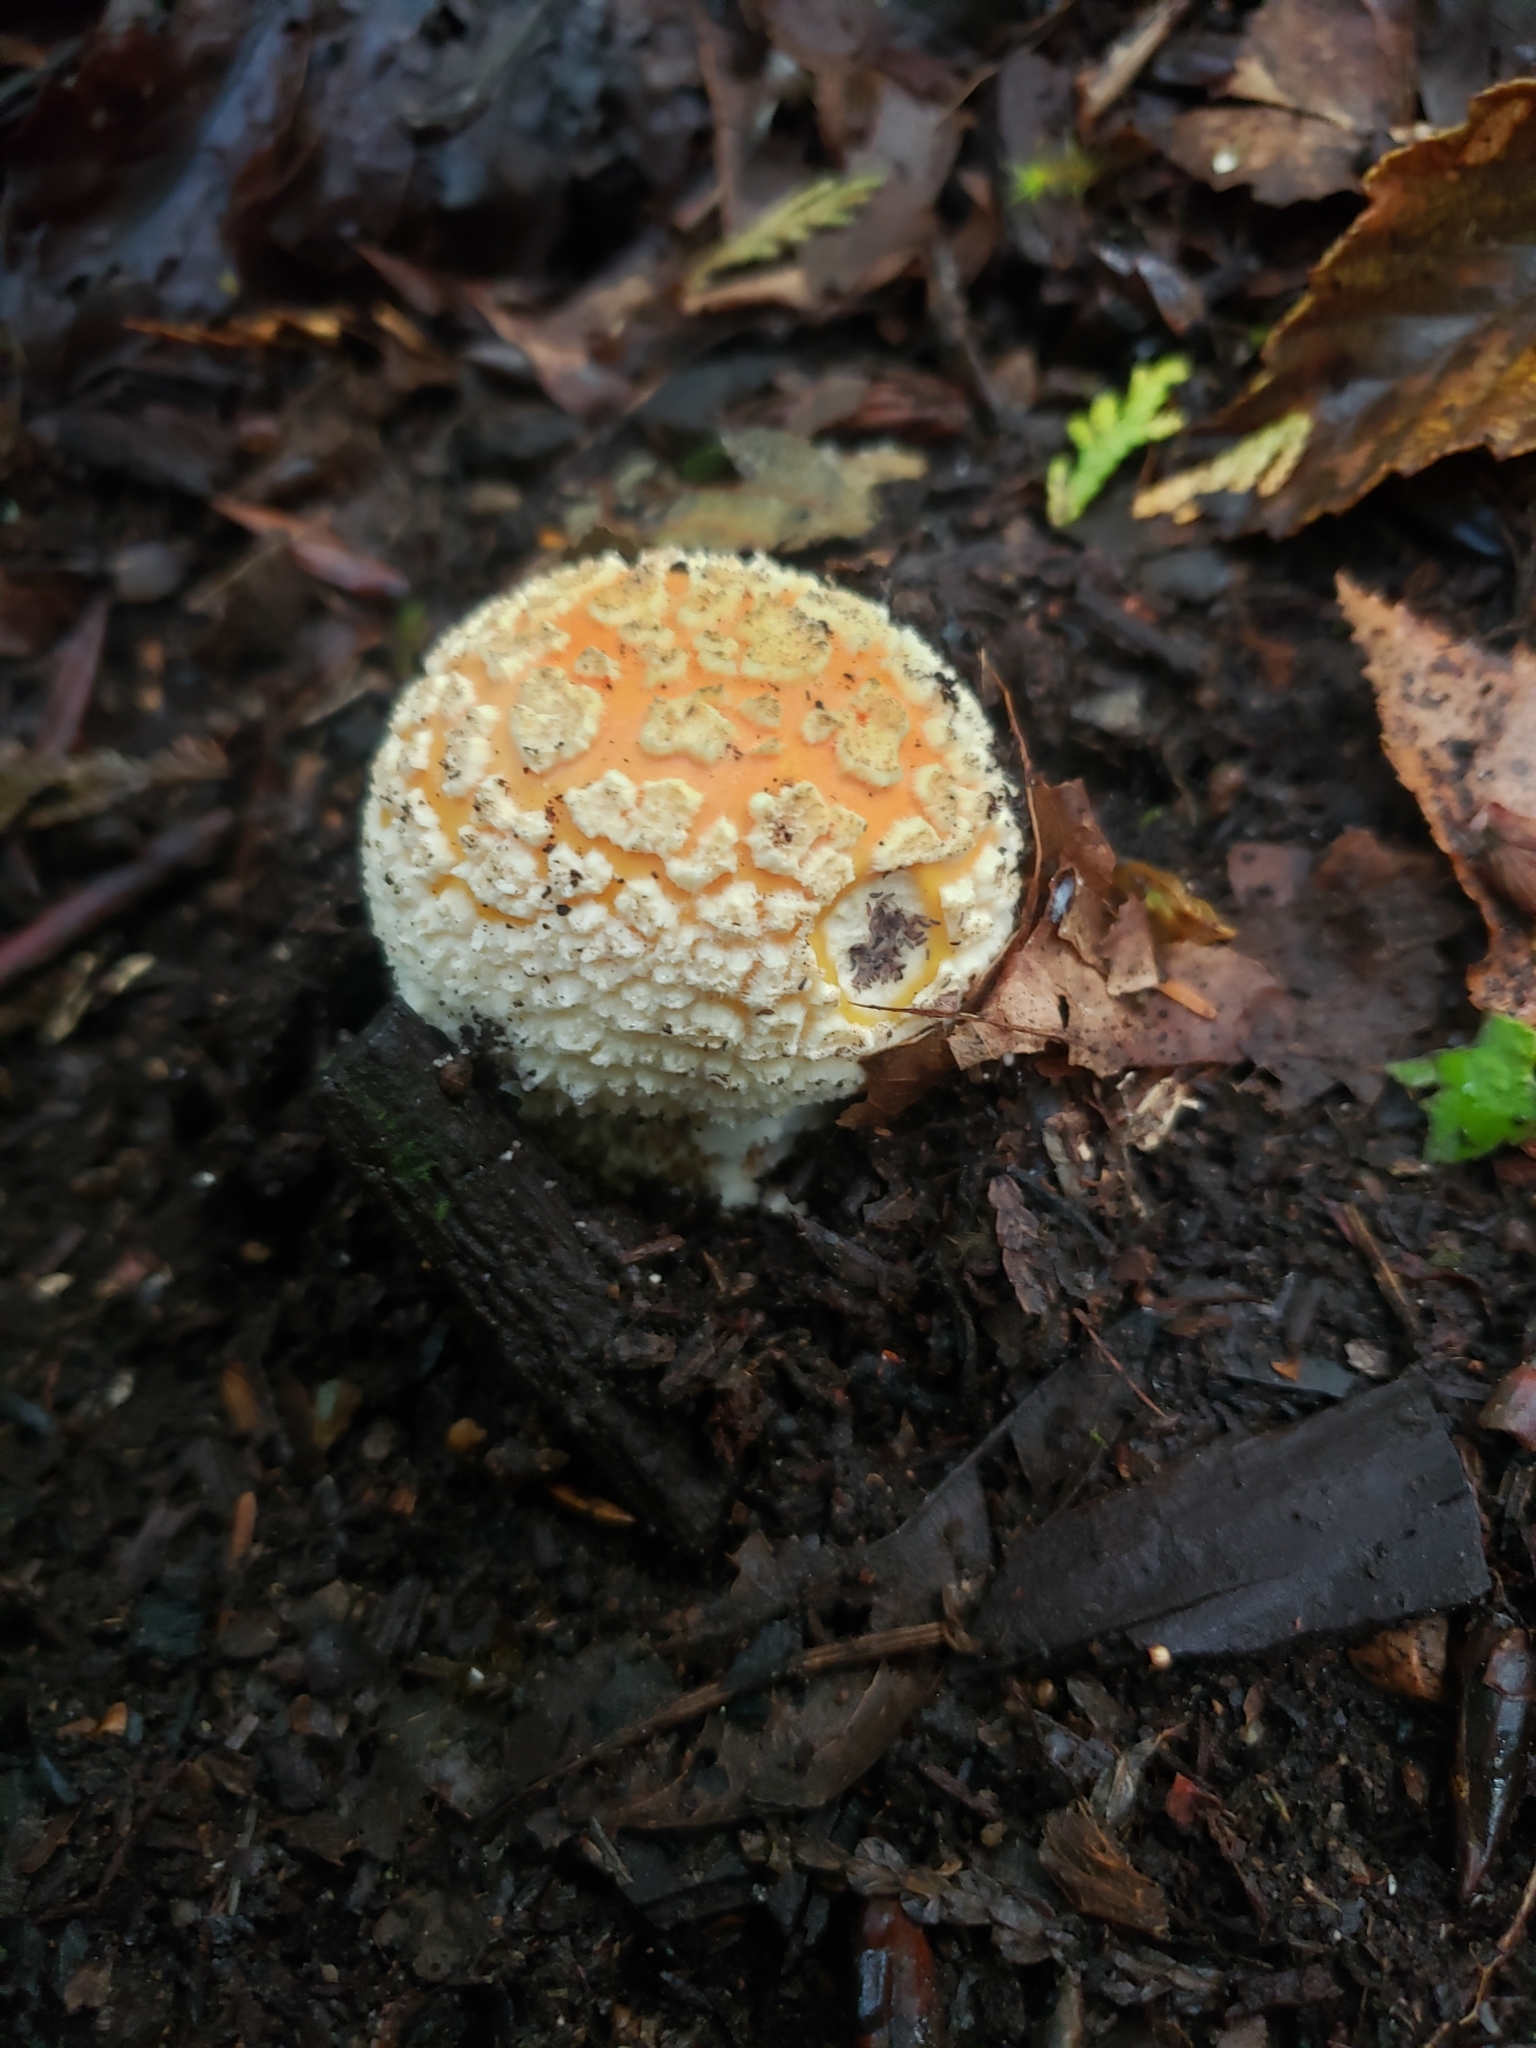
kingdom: Fungi
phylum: Basidiomycota
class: Agaricomycetes
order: Agaricales
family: Amanitaceae
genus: Amanita
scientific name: Amanita muscaria
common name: Fly agaric
